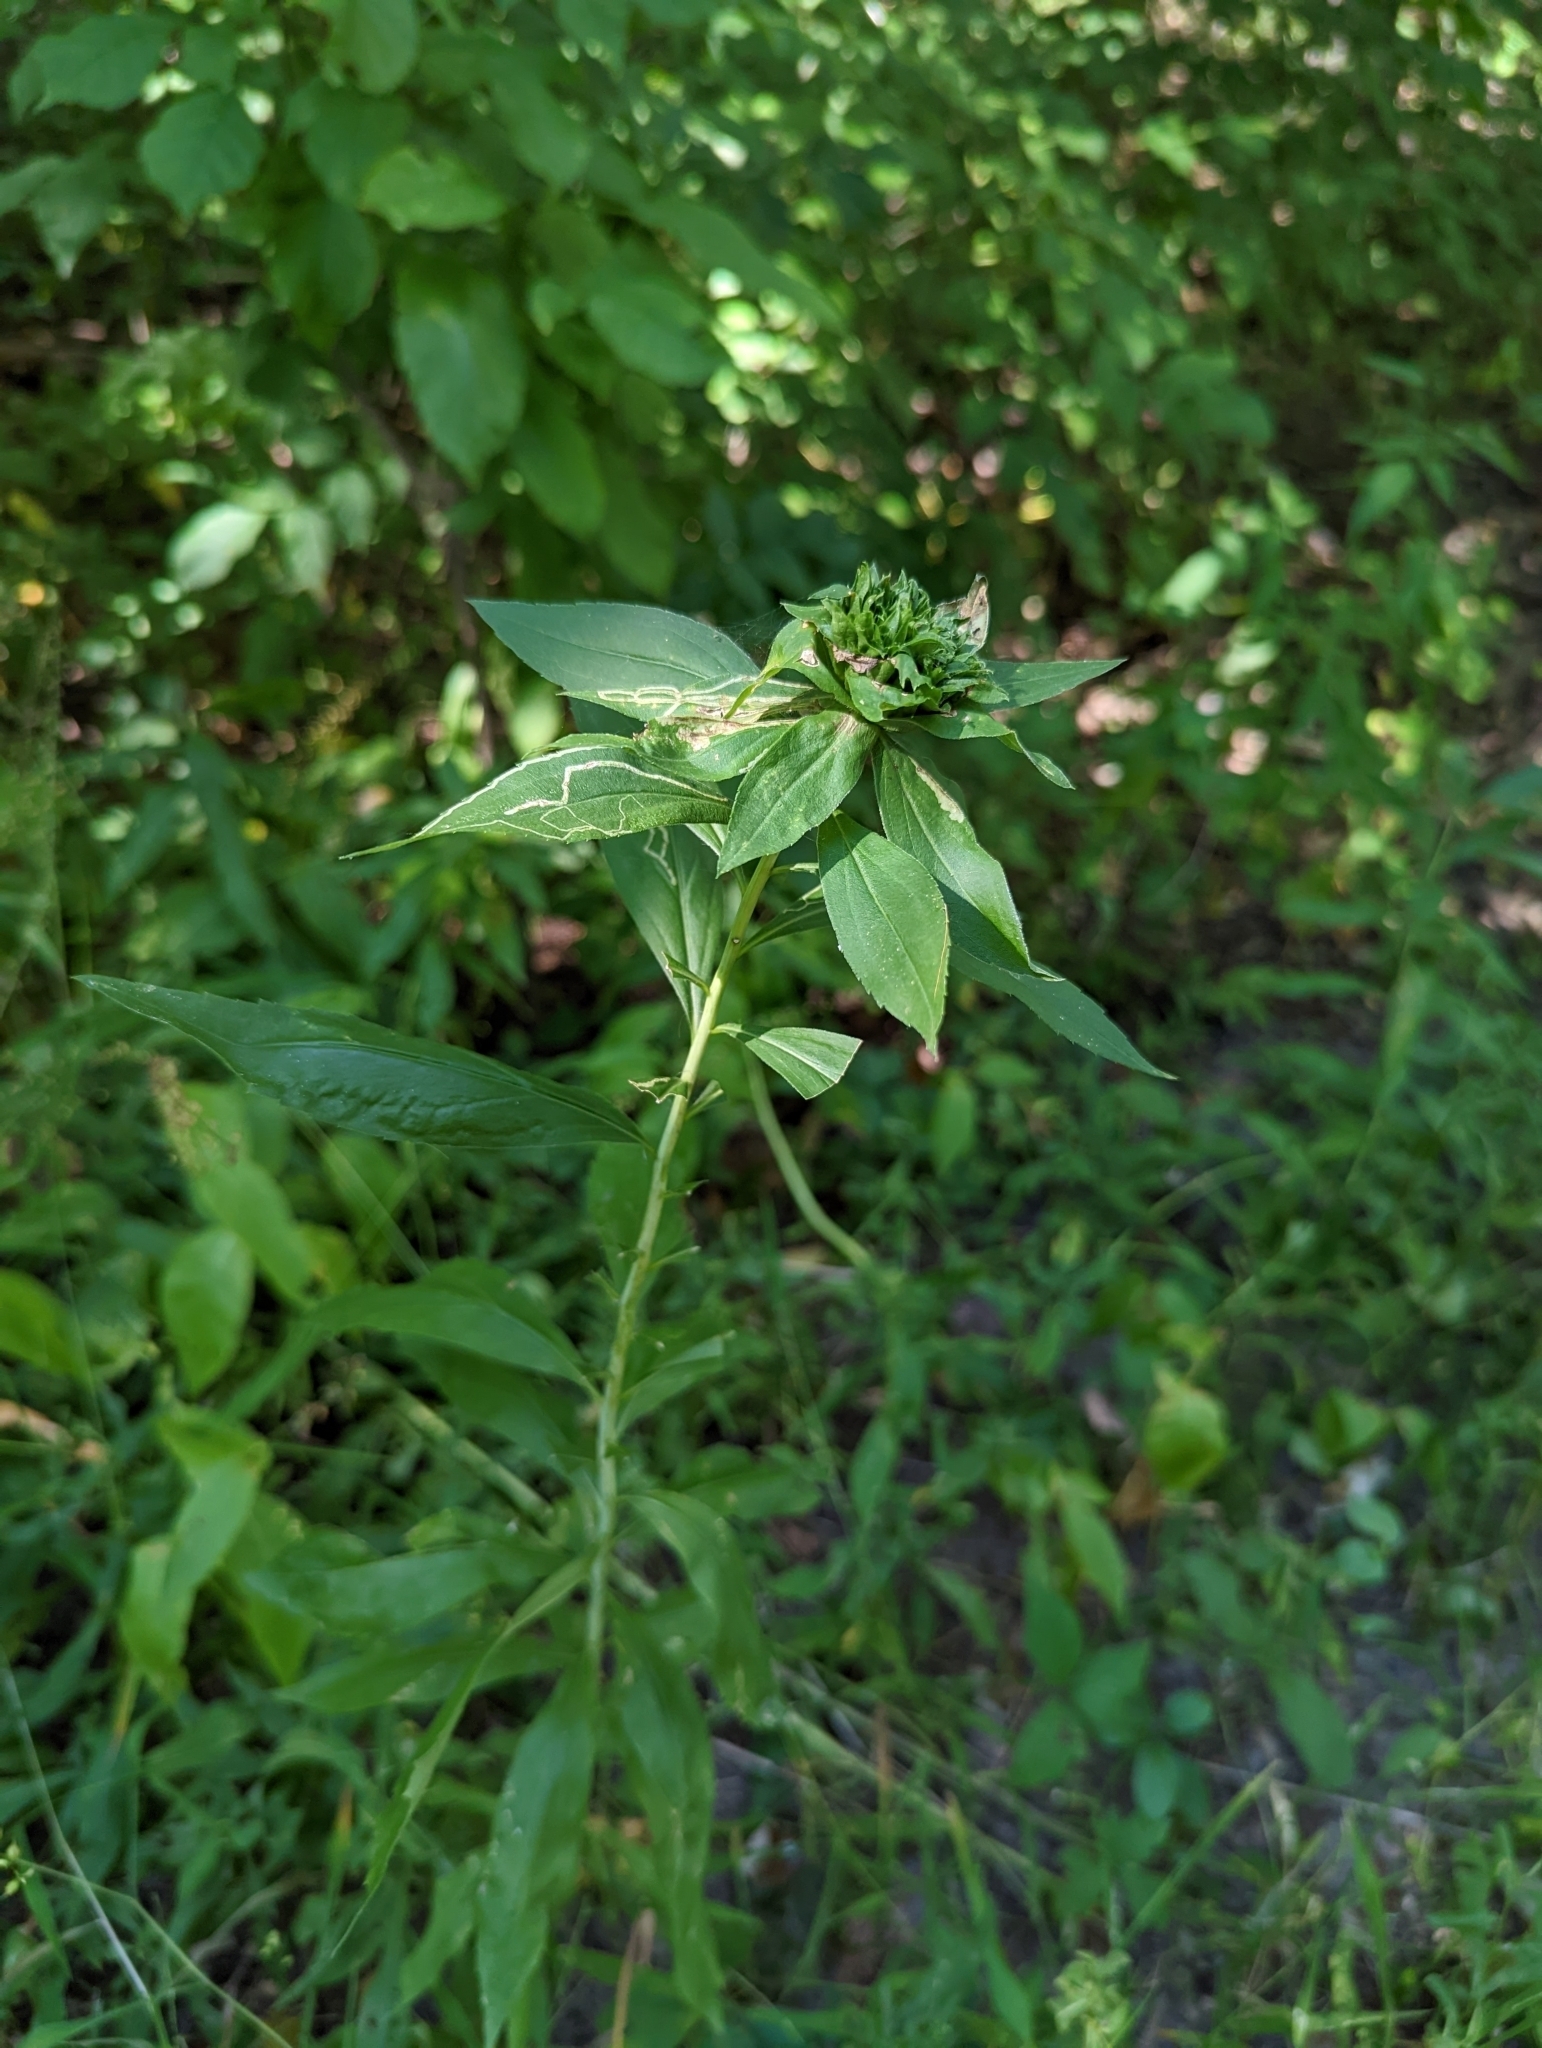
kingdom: Animalia
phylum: Arthropoda
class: Insecta
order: Diptera
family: Agromyzidae
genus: Ophiomyia
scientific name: Ophiomyia maura
